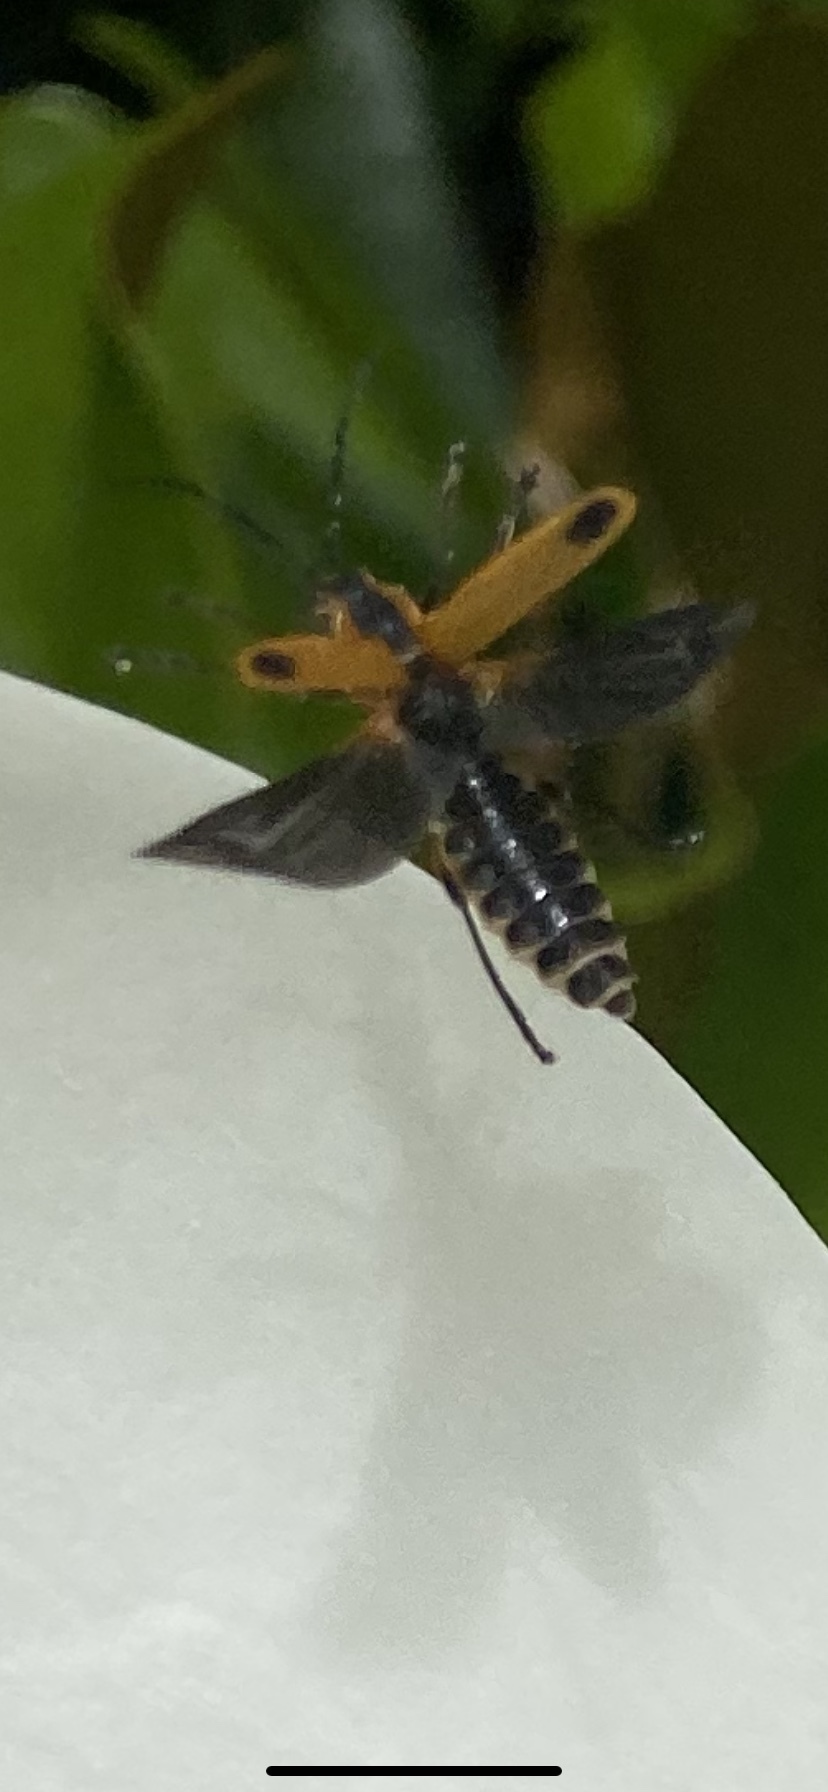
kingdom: Animalia
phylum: Arthropoda
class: Insecta
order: Coleoptera
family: Cantharidae
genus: Chauliognathus
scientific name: Chauliognathus marginatus
